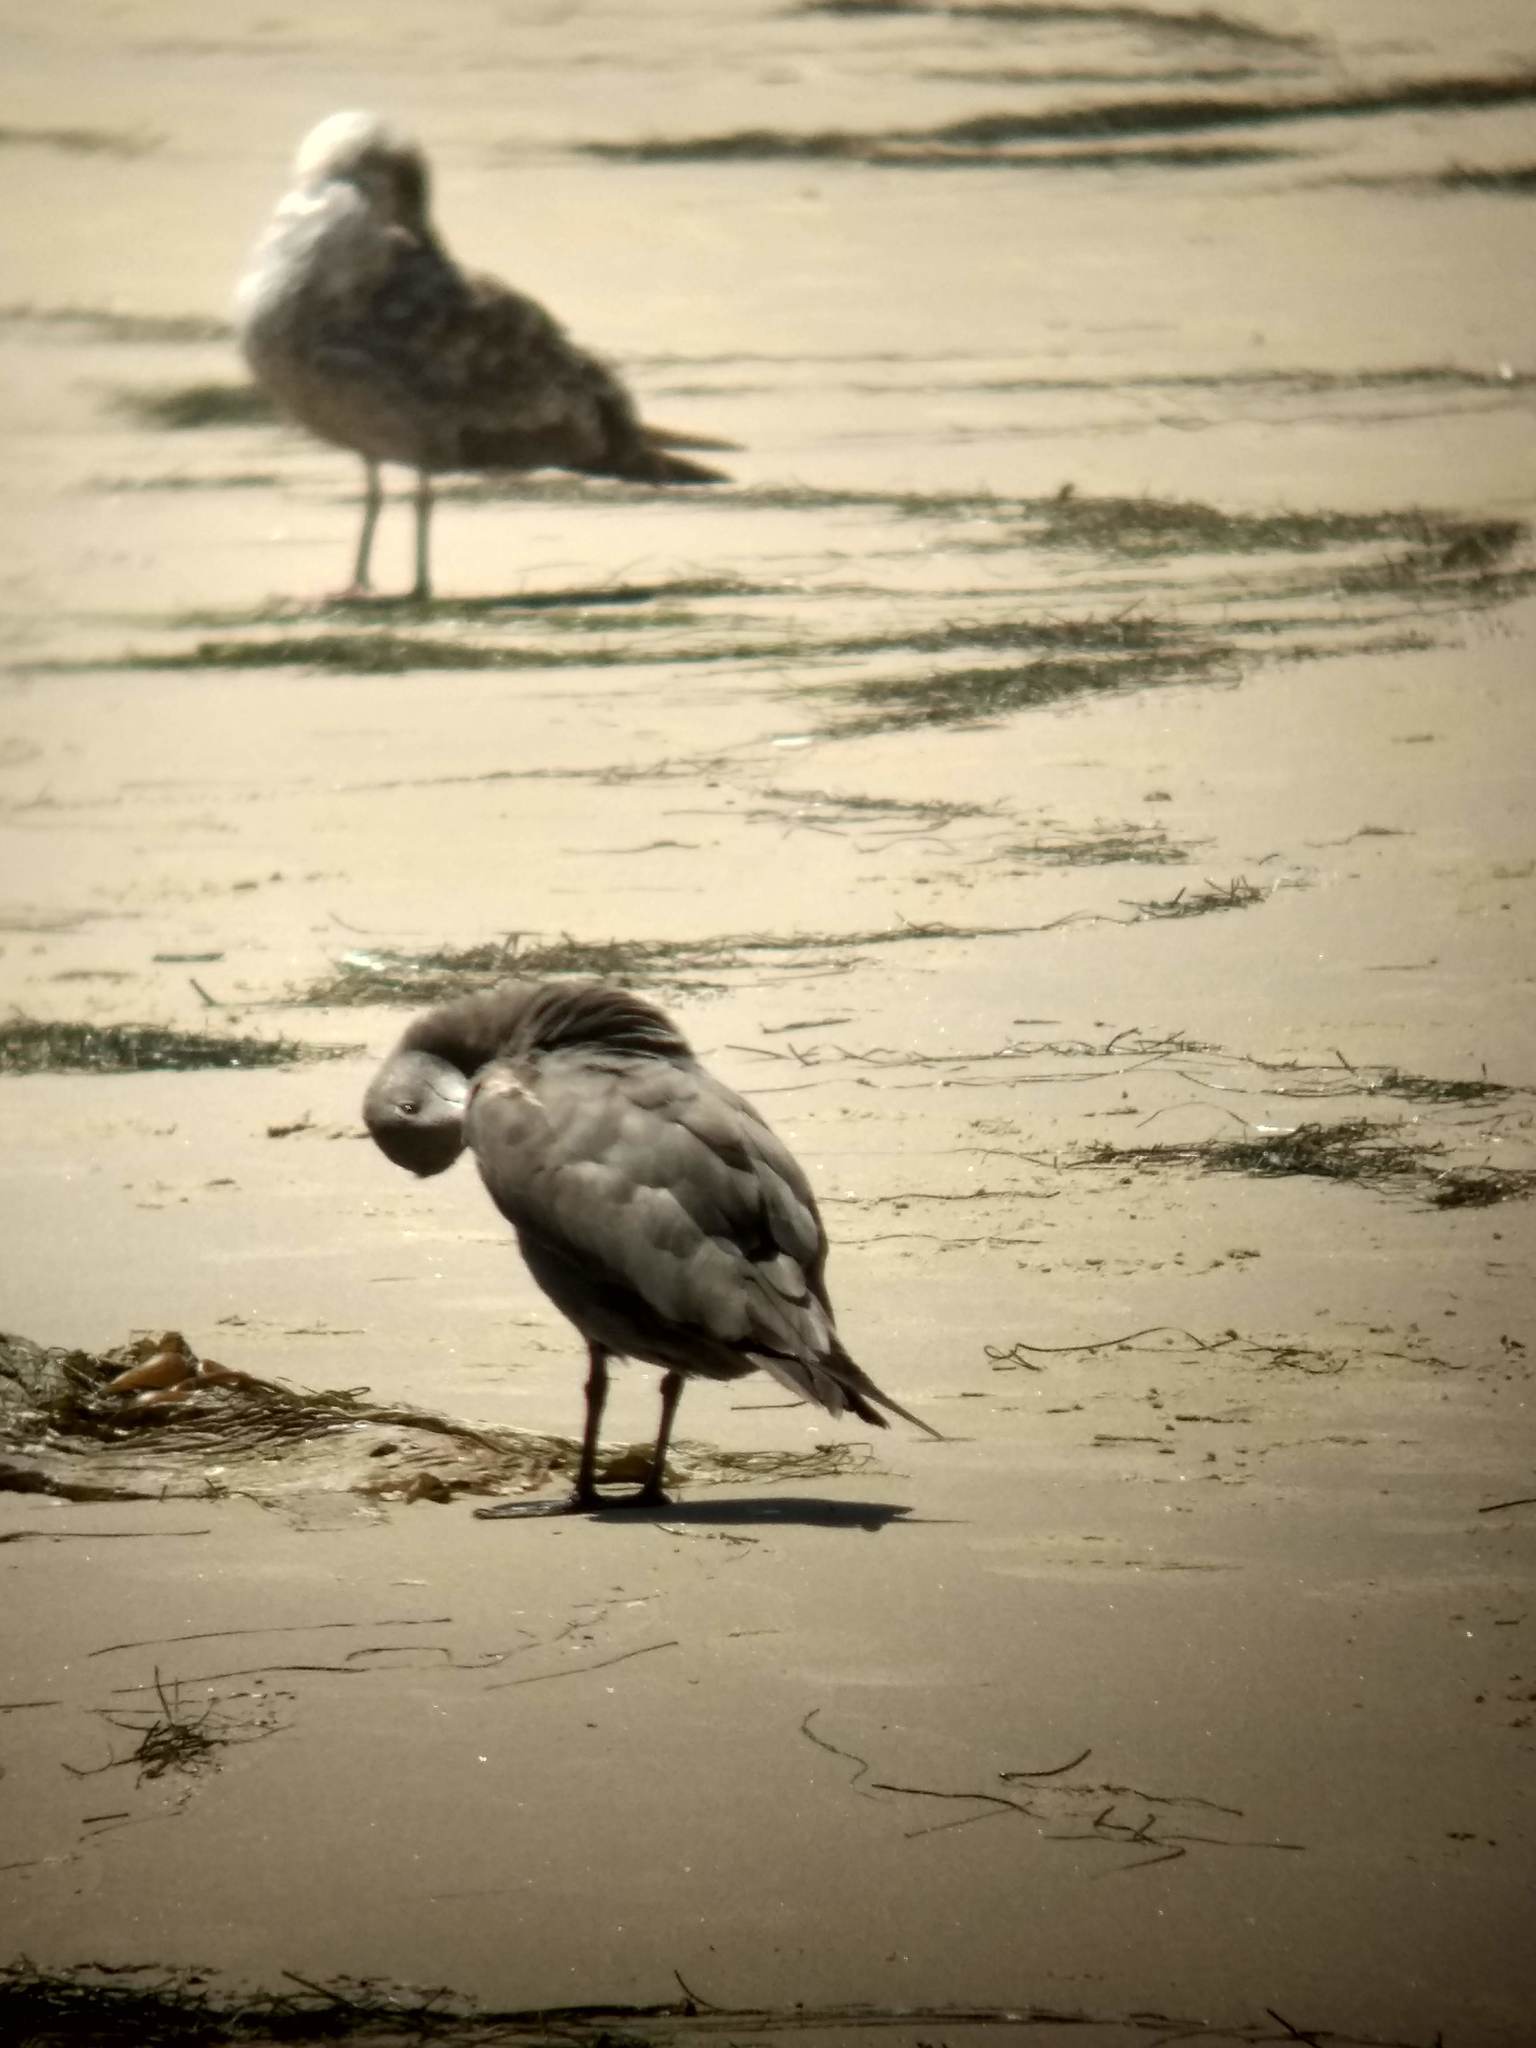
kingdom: Animalia
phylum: Chordata
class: Aves
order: Charadriiformes
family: Laridae
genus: Larus
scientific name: Larus heermanni
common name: Heermann's gull
